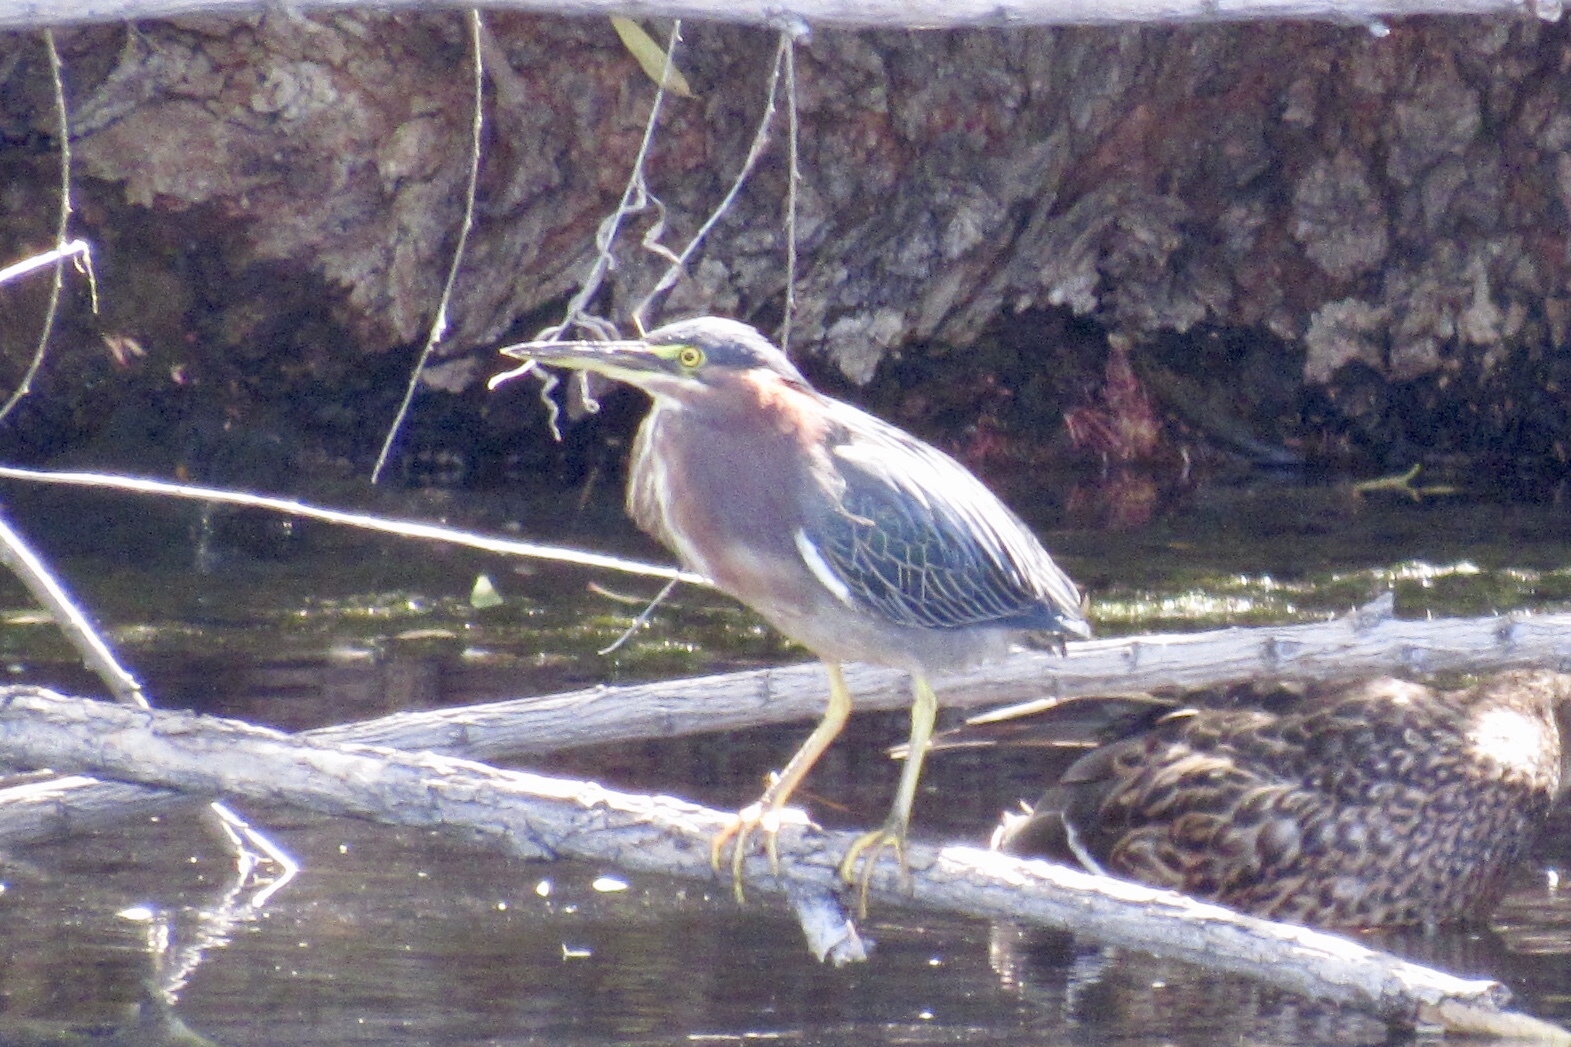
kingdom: Animalia
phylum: Chordata
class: Aves
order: Pelecaniformes
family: Ardeidae
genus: Butorides
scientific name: Butorides virescens
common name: Green heron
